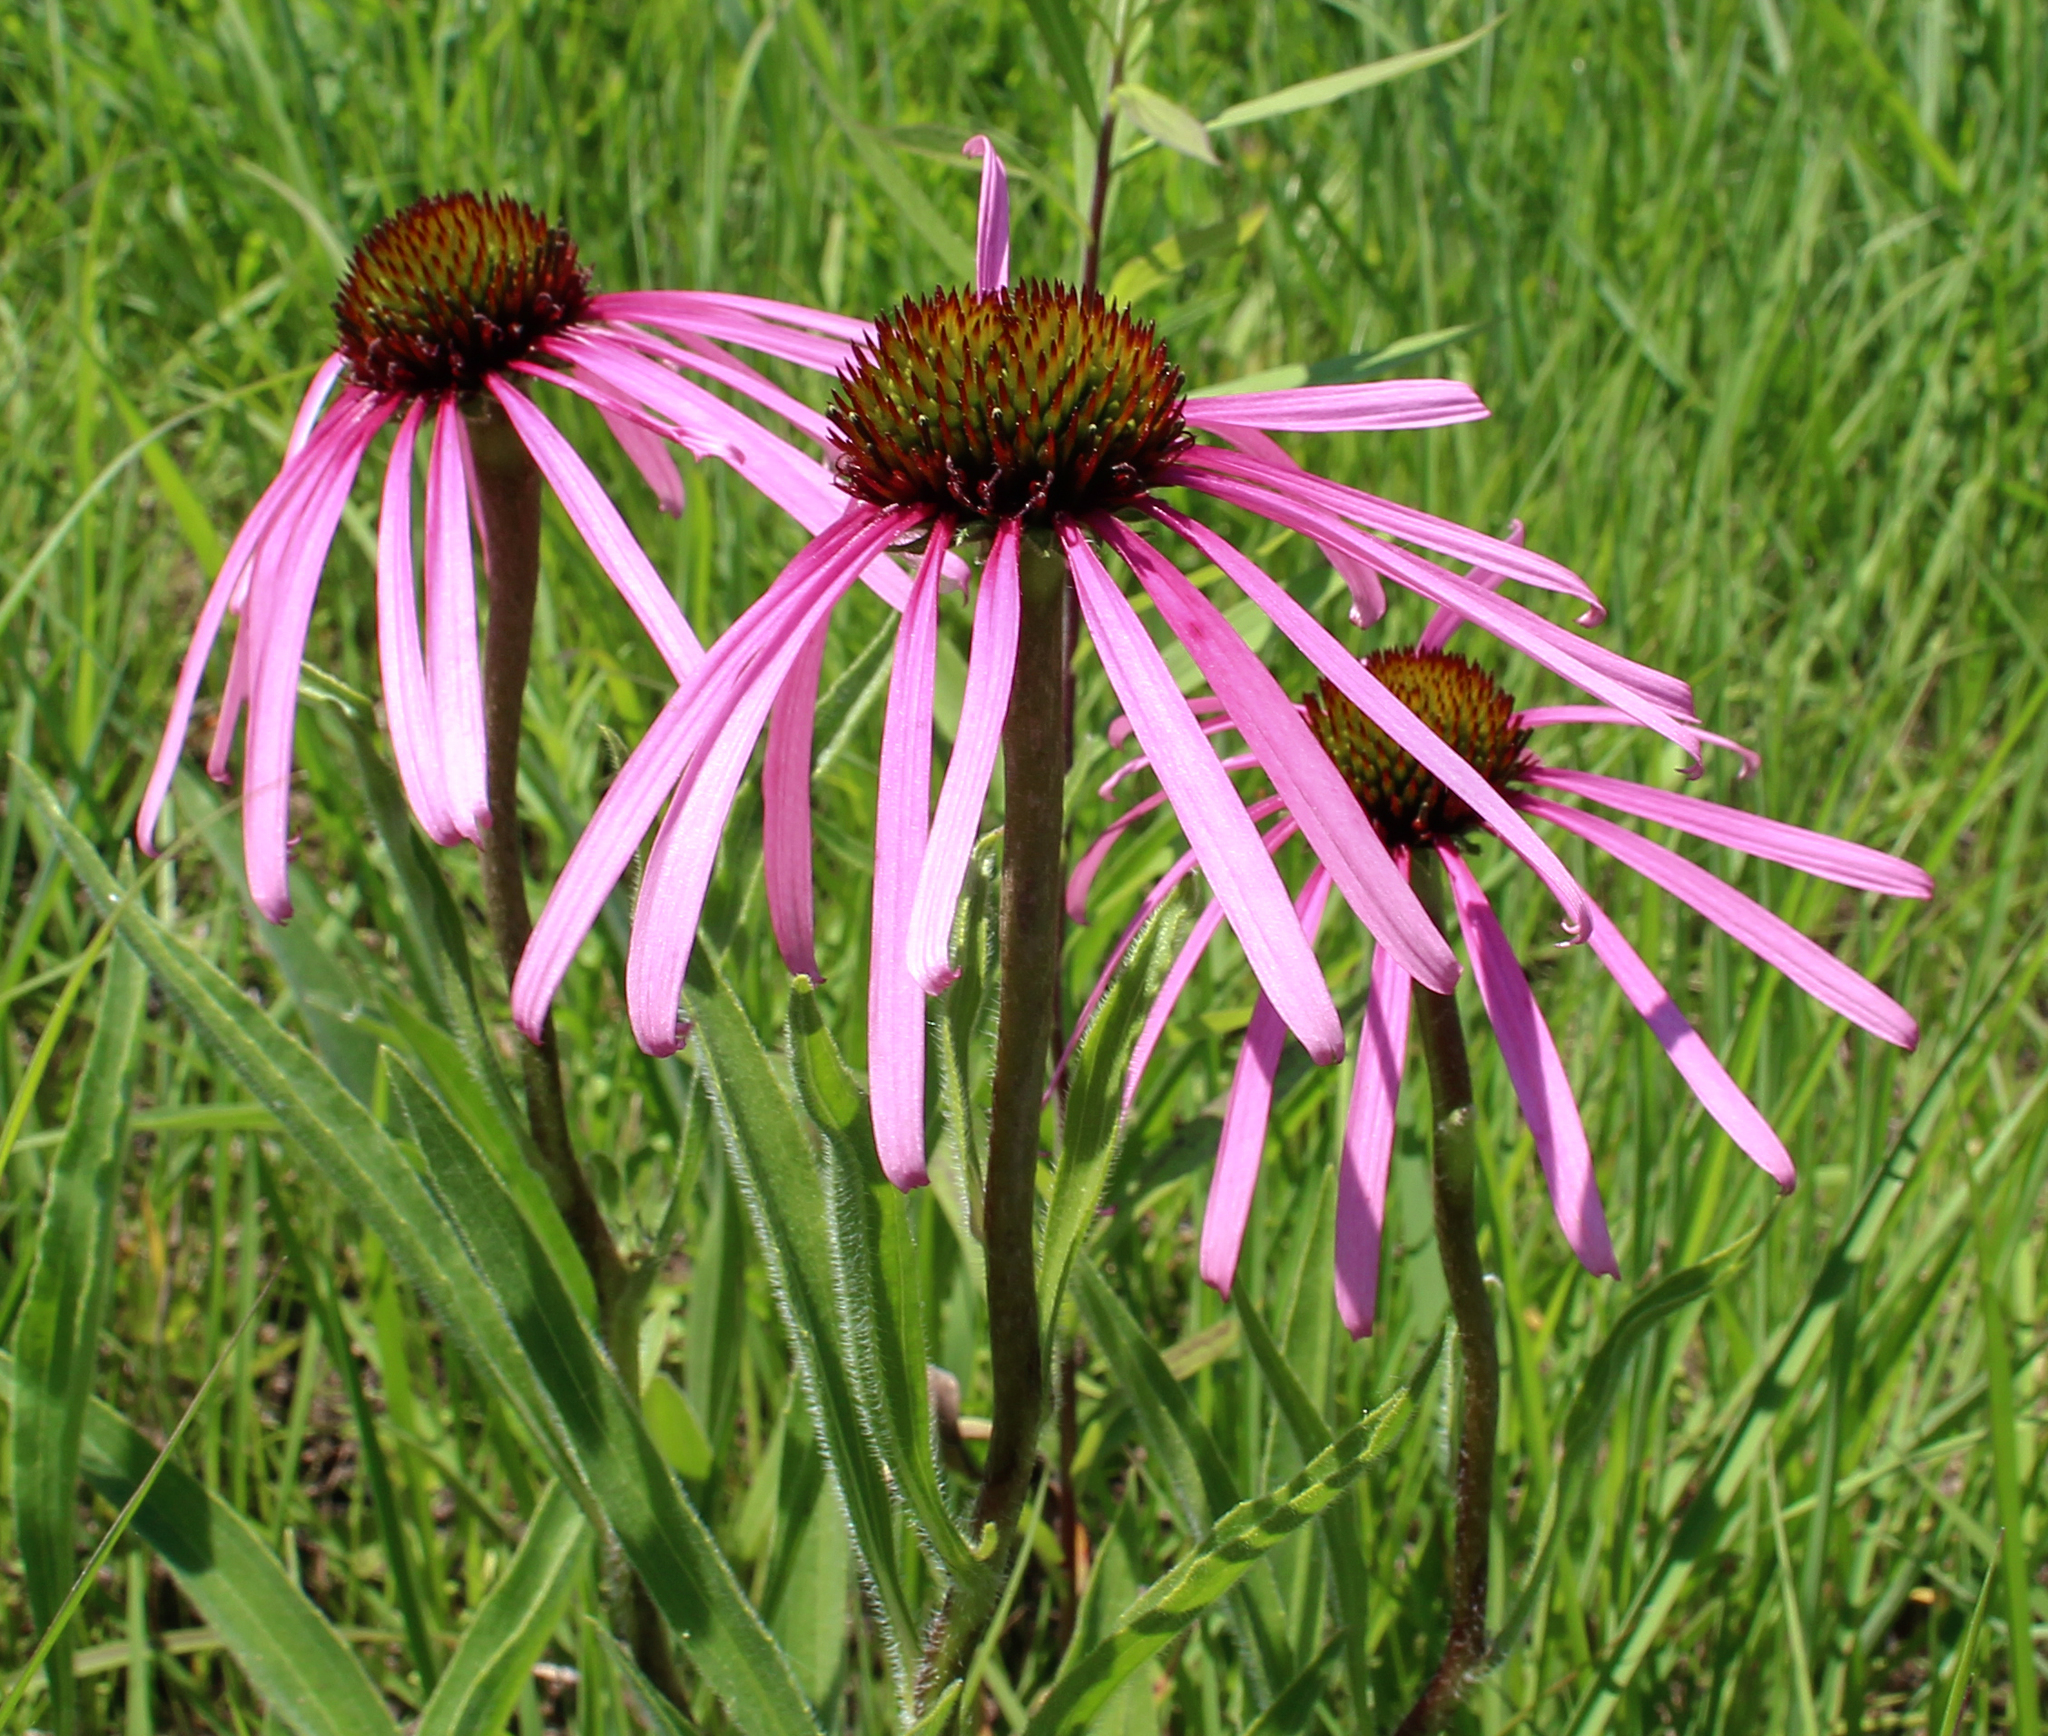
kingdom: Plantae
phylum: Tracheophyta
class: Magnoliopsida
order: Asterales
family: Asteraceae
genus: Echinacea
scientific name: Echinacea pallida
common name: Pale echinacea
